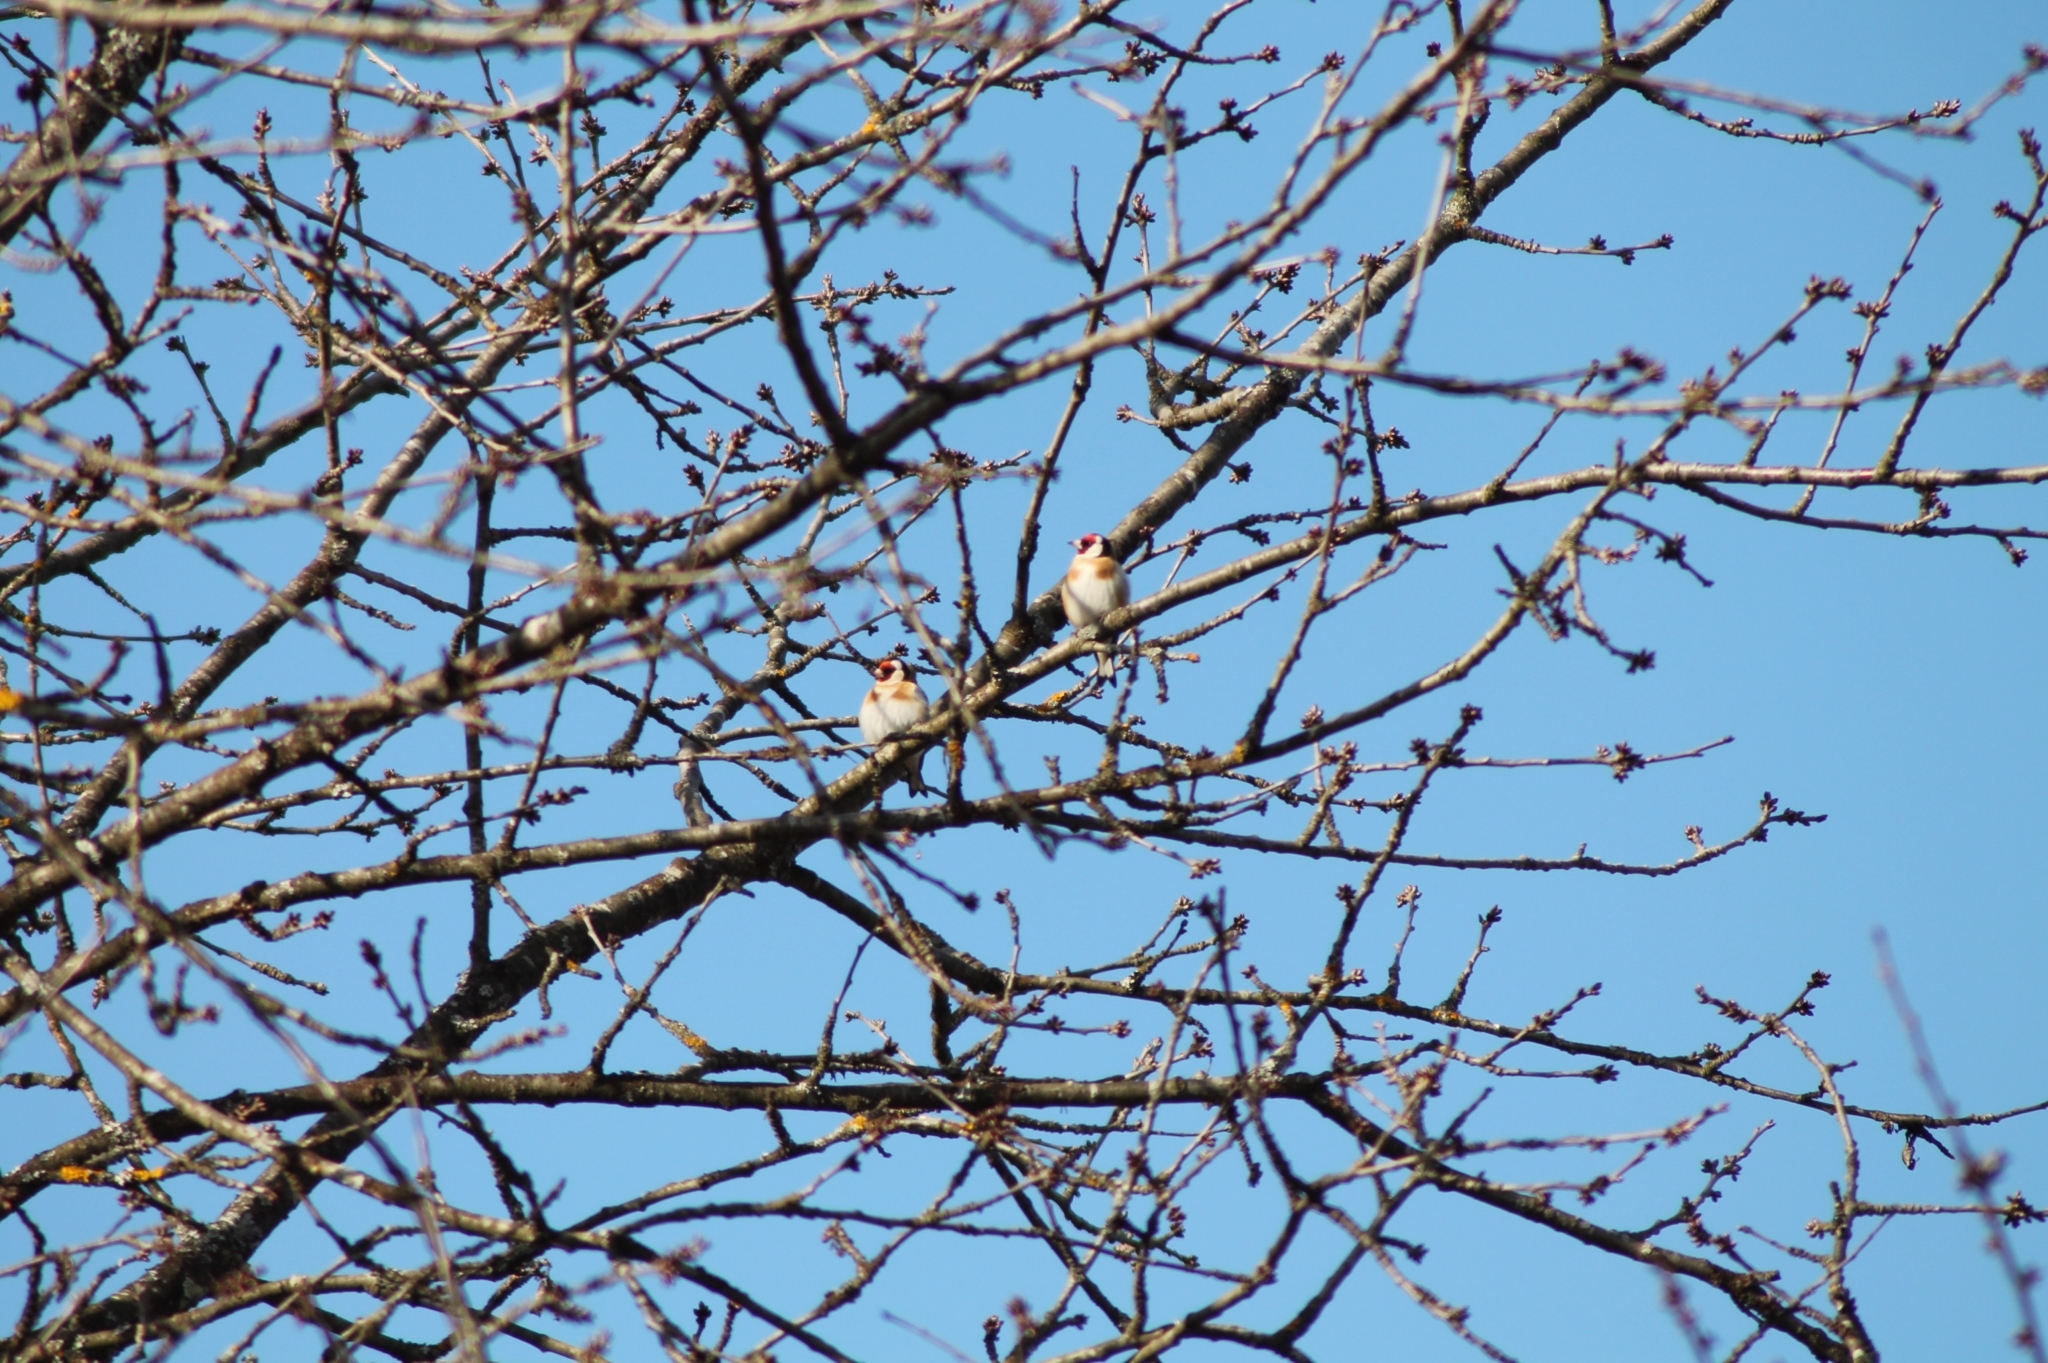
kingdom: Animalia
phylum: Chordata
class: Aves
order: Passeriformes
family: Fringillidae
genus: Carduelis
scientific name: Carduelis carduelis
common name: European goldfinch
